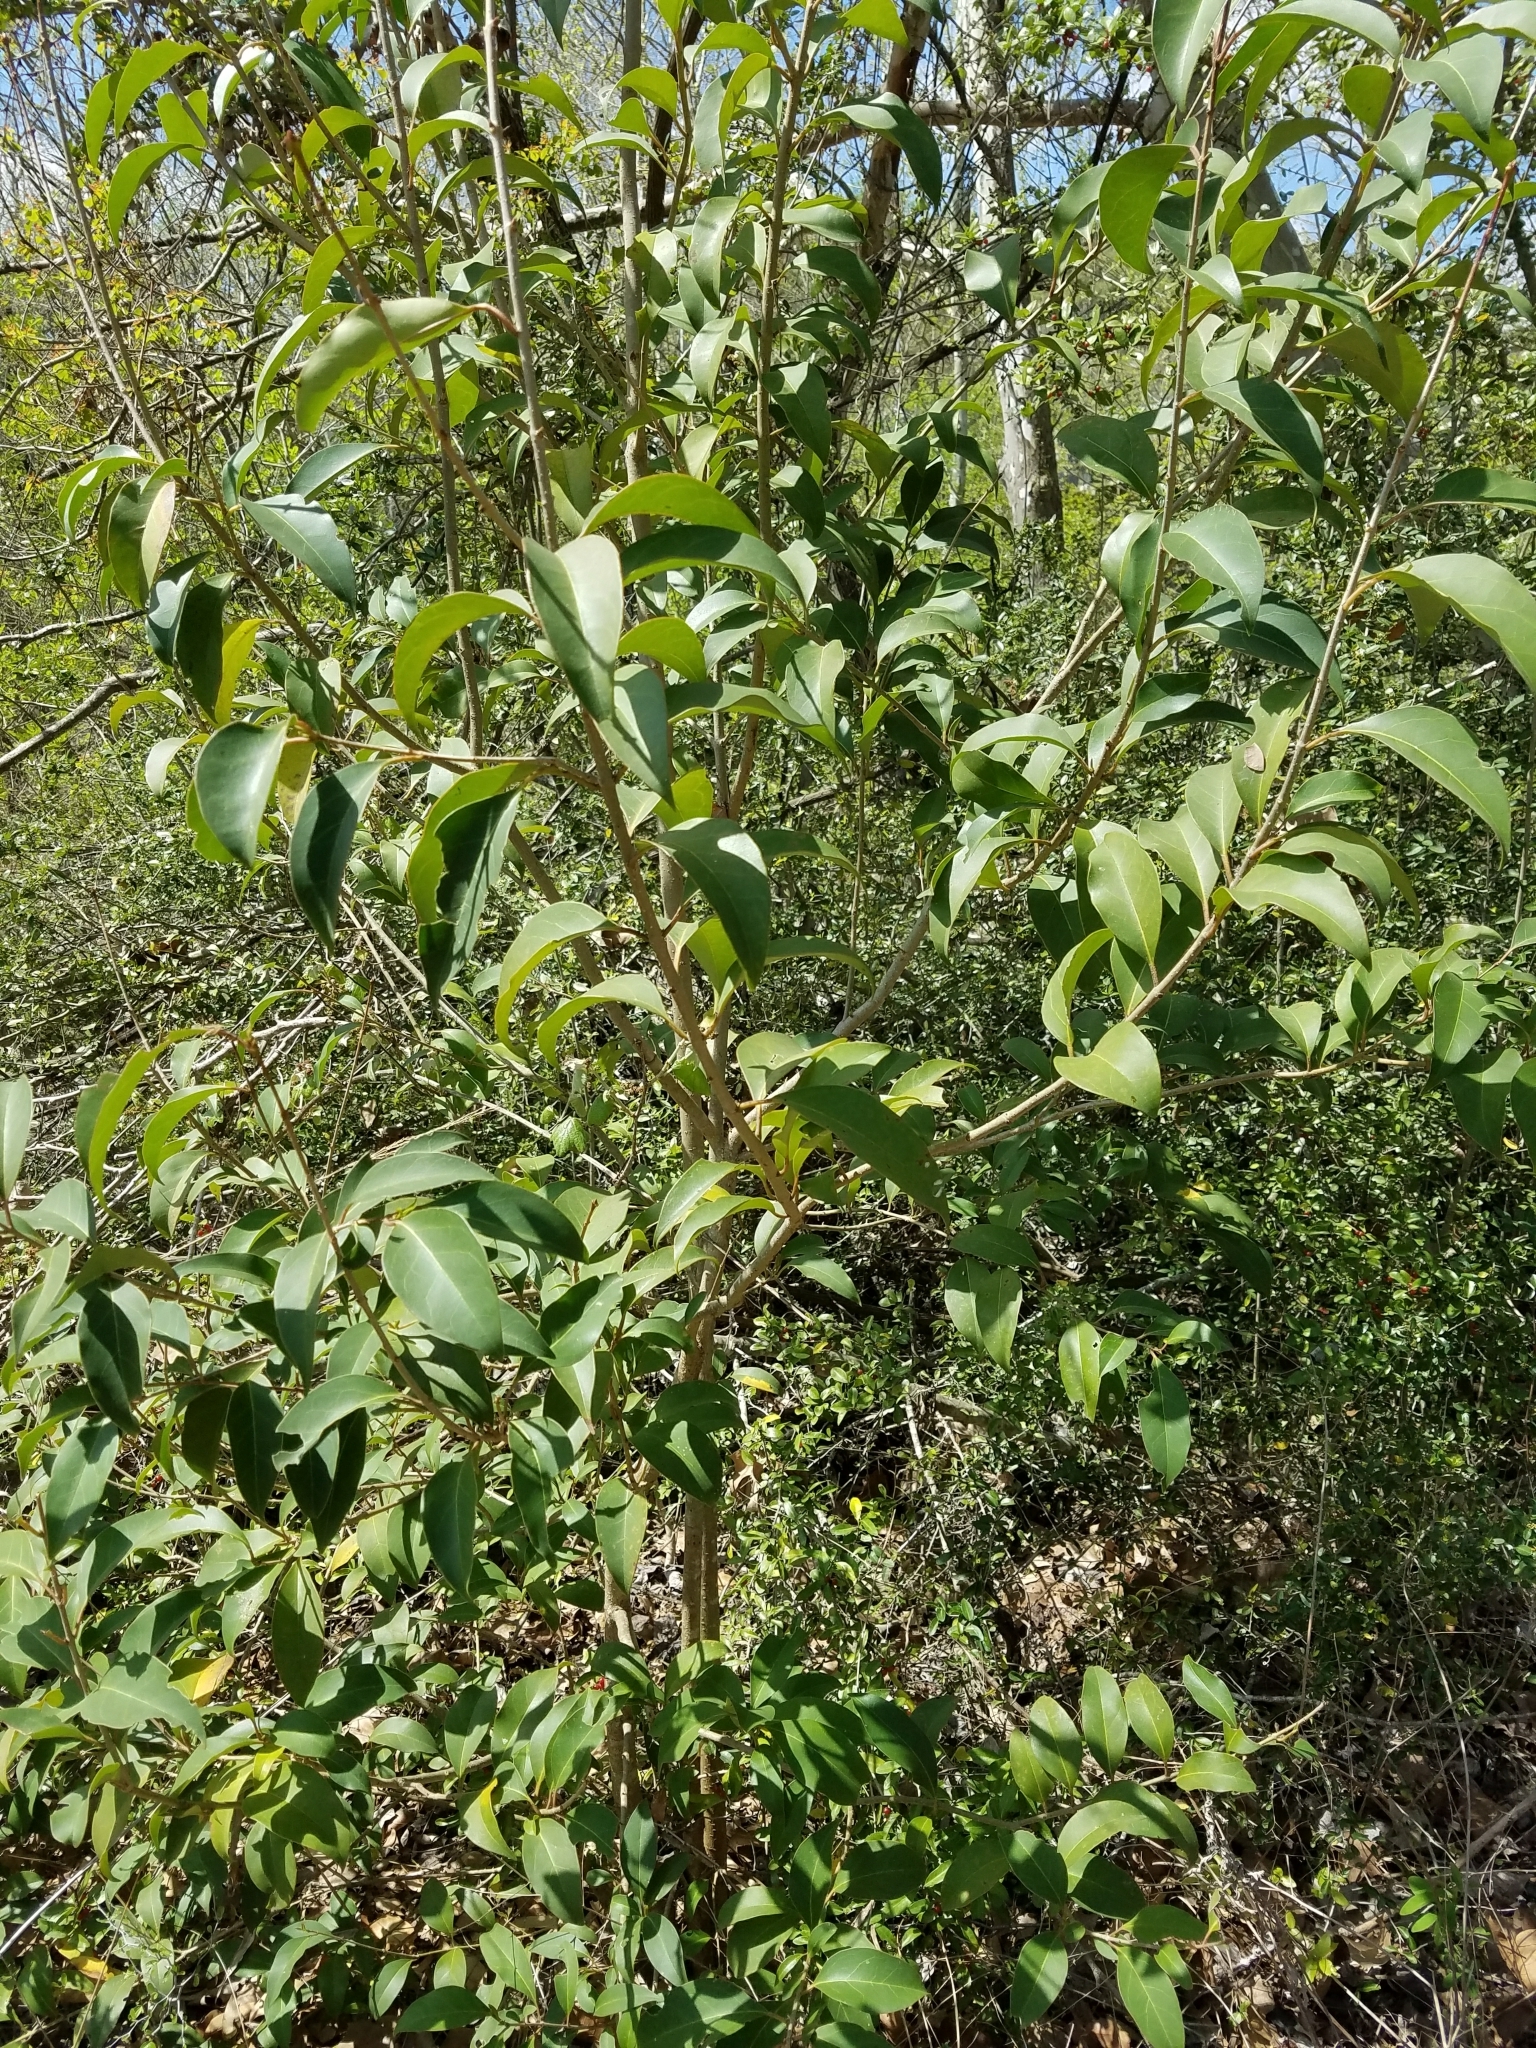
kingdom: Plantae
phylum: Tracheophyta
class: Magnoliopsida
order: Lamiales
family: Oleaceae
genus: Ligustrum
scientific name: Ligustrum lucidum
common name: Glossy privet
